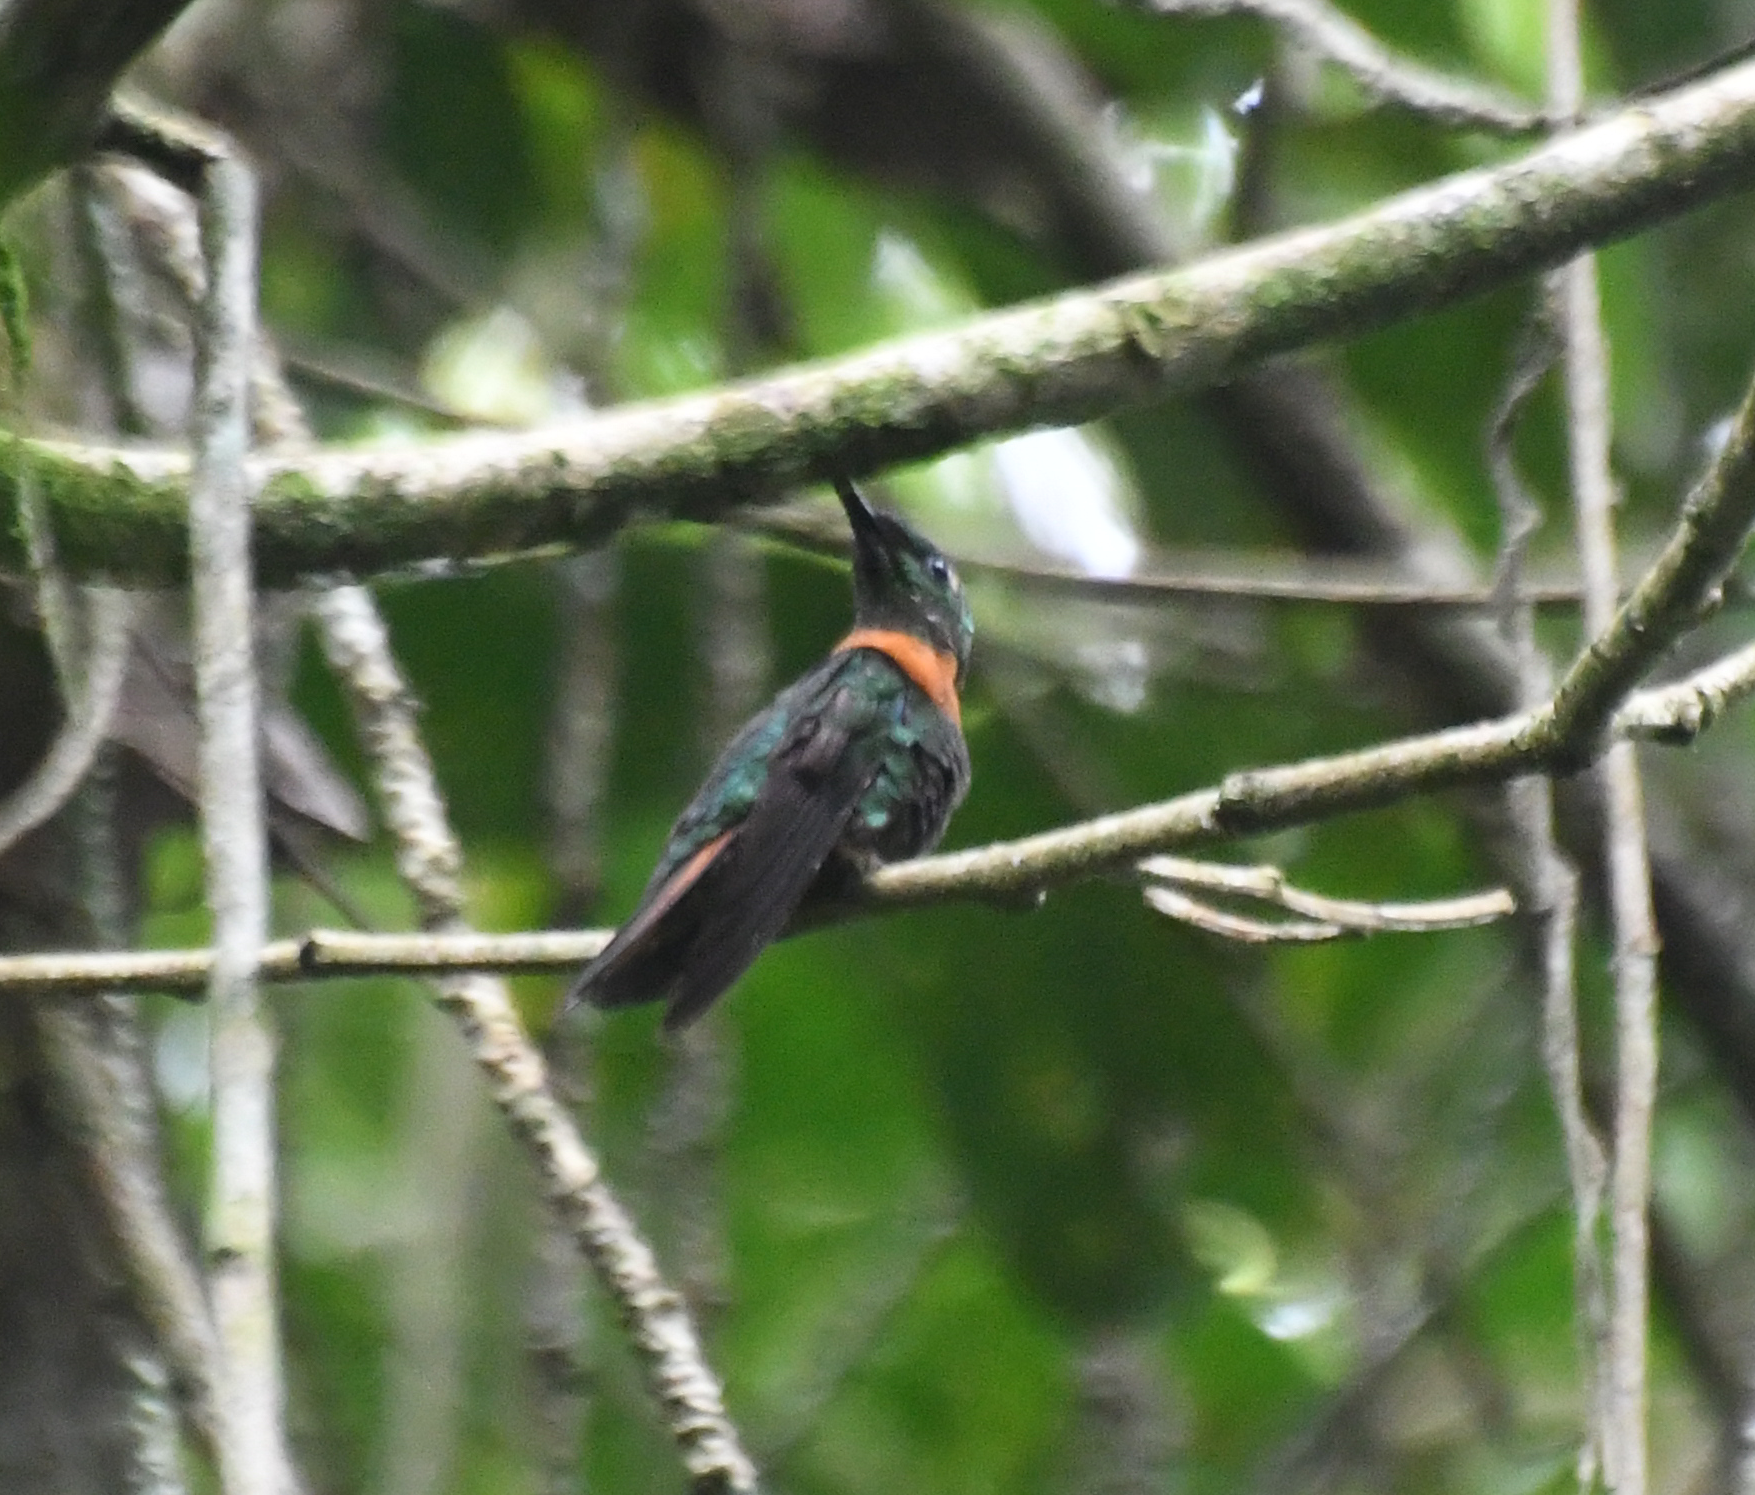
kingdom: Animalia
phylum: Chordata
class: Aves
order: Apodiformes
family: Trochilidae
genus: Heliodoxa
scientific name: Heliodoxa aurescens
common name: Gould's jewelfront
